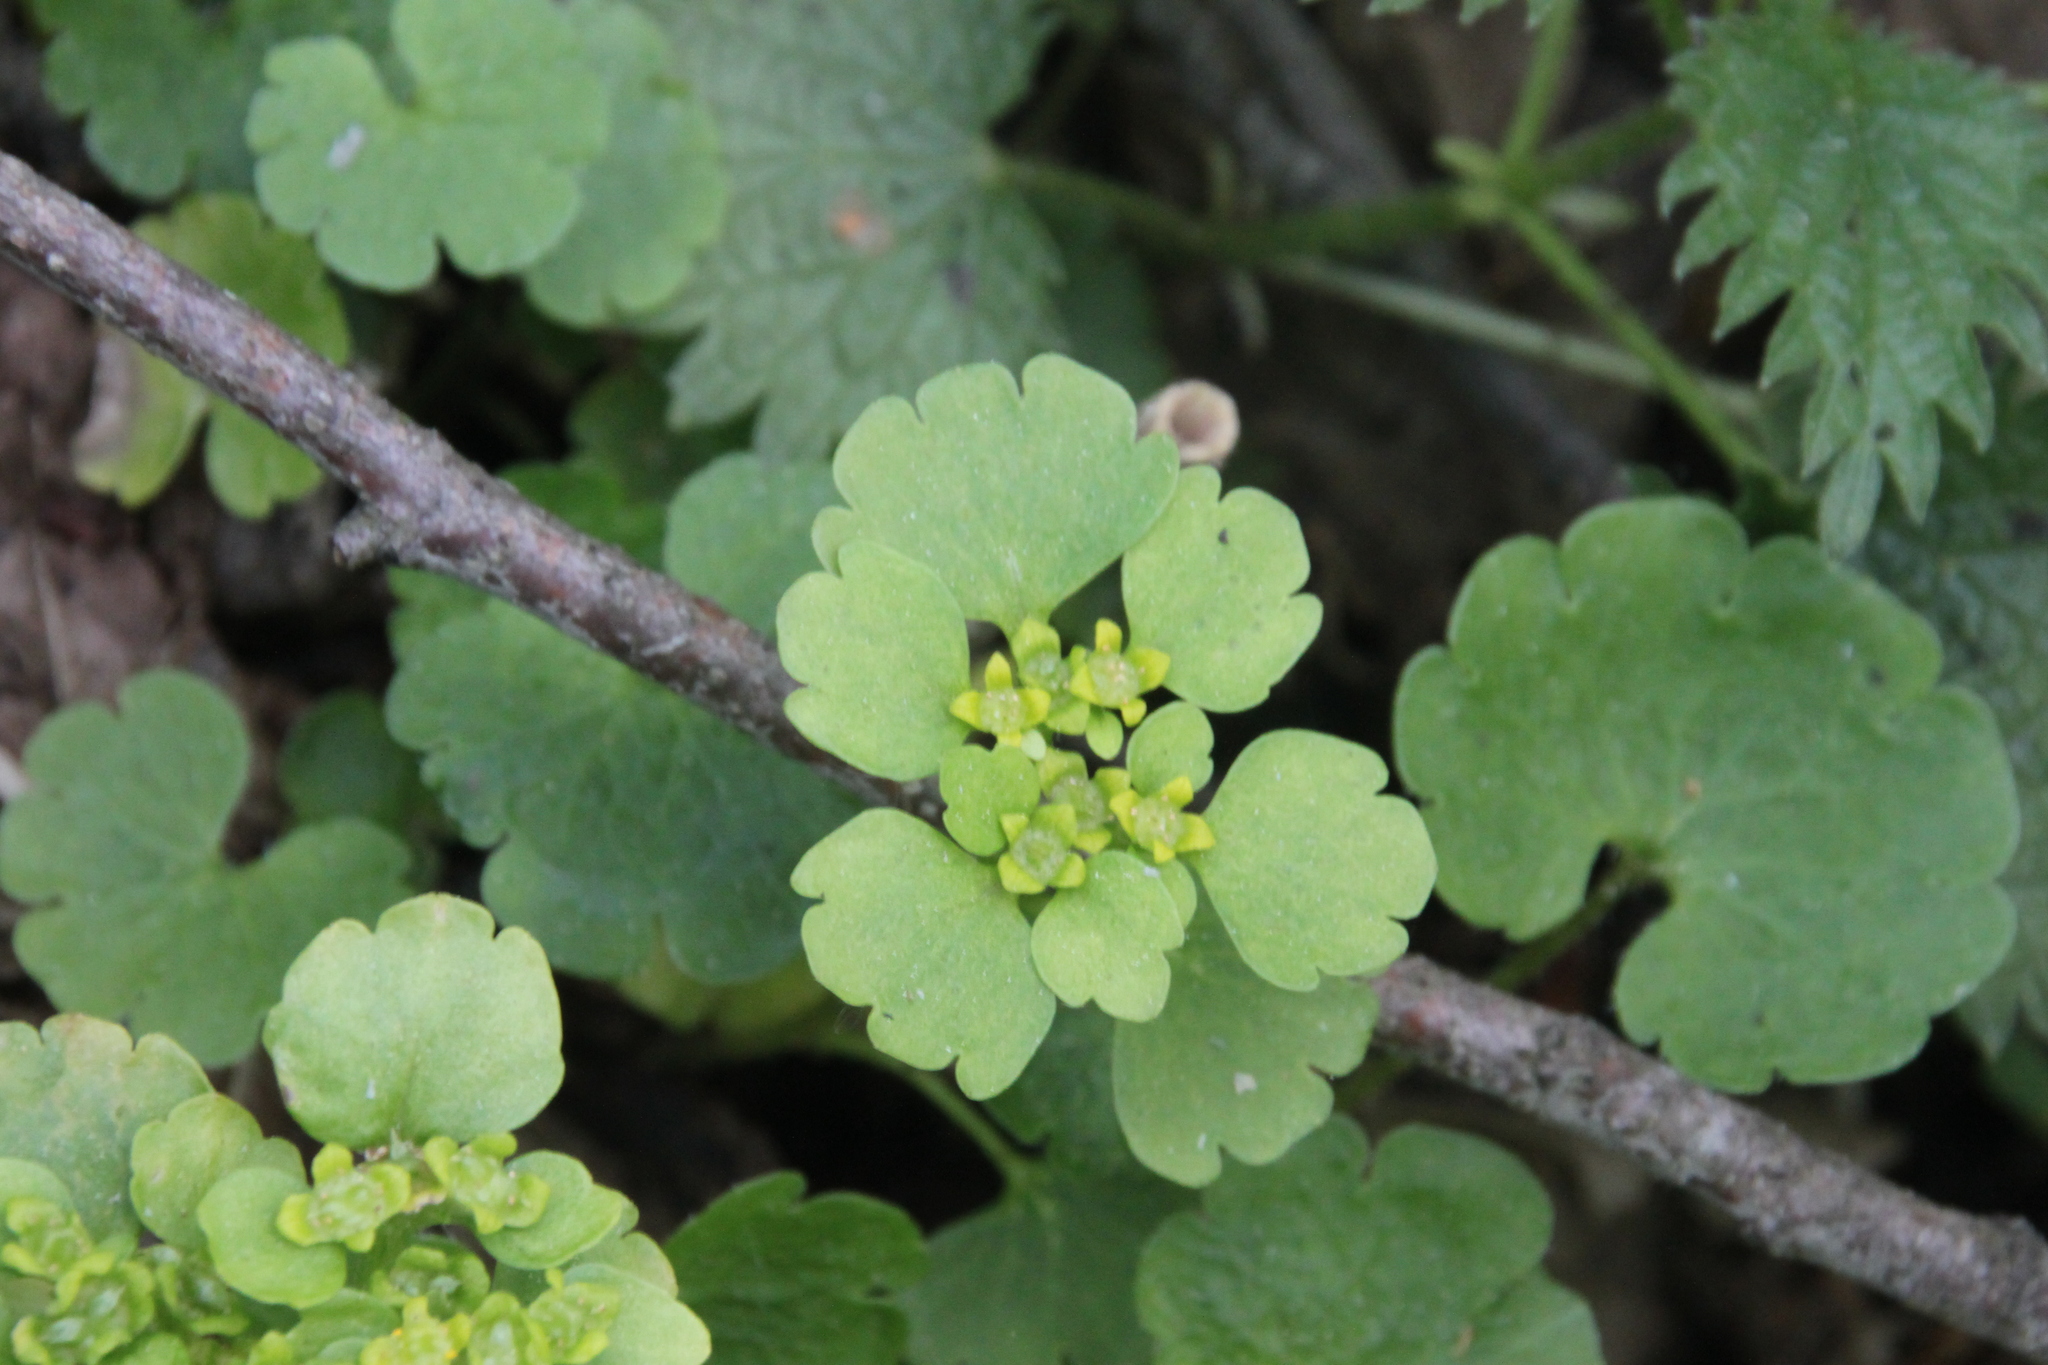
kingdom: Plantae
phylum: Tracheophyta
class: Magnoliopsida
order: Saxifragales
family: Saxifragaceae
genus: Chrysosplenium
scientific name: Chrysosplenium alternifolium
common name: Alternate-leaved golden-saxifrage
